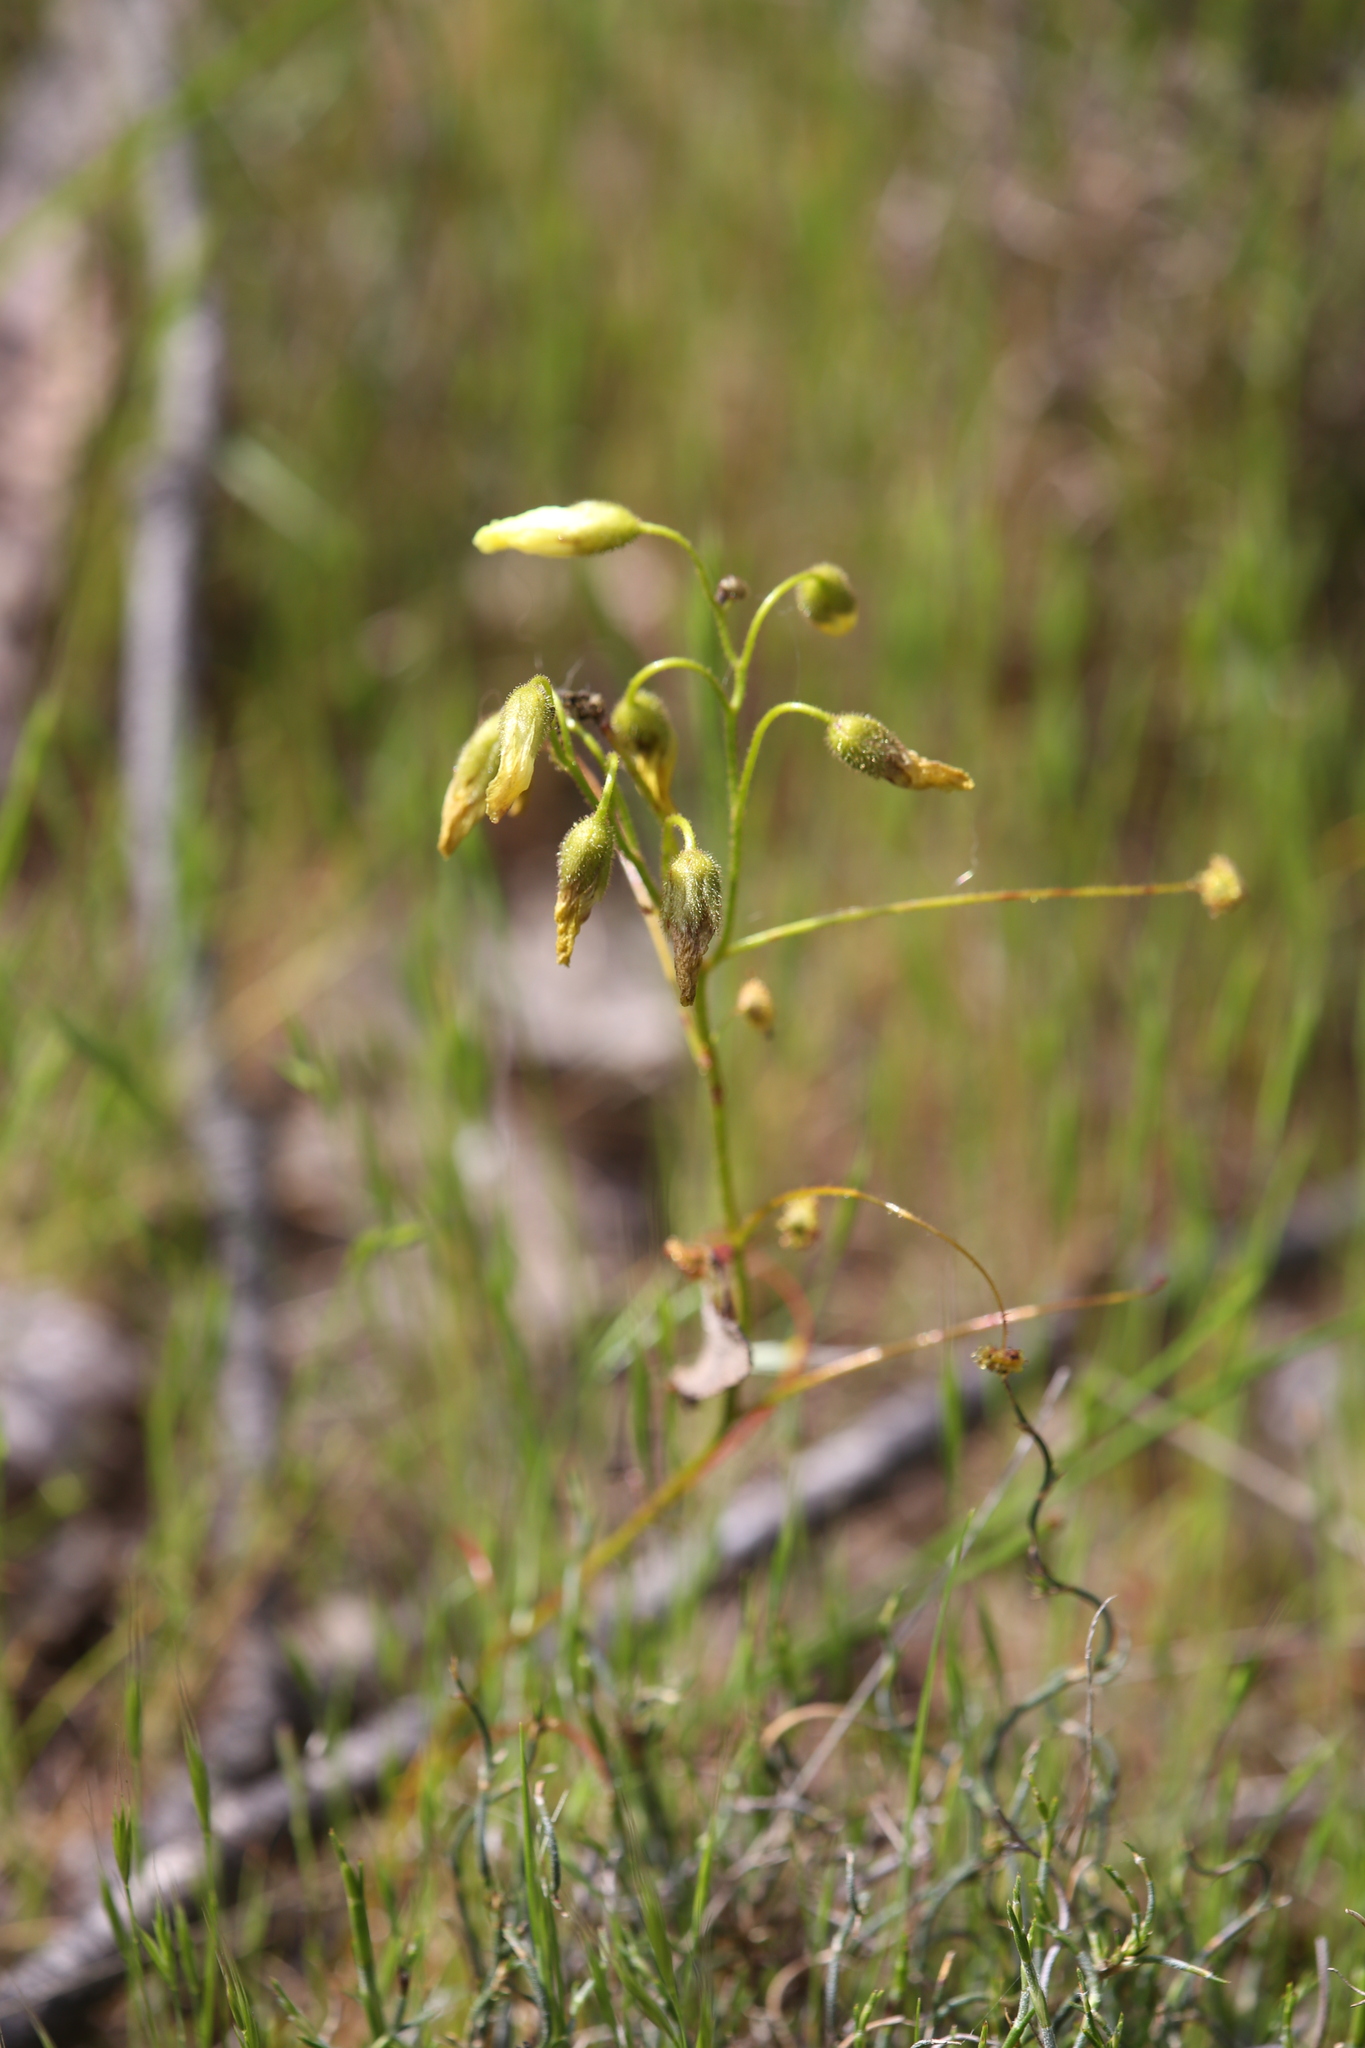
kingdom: Plantae
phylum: Tracheophyta
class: Magnoliopsida
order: Caryophyllales
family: Droseraceae
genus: Drosera
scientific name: Drosera subhirtella
